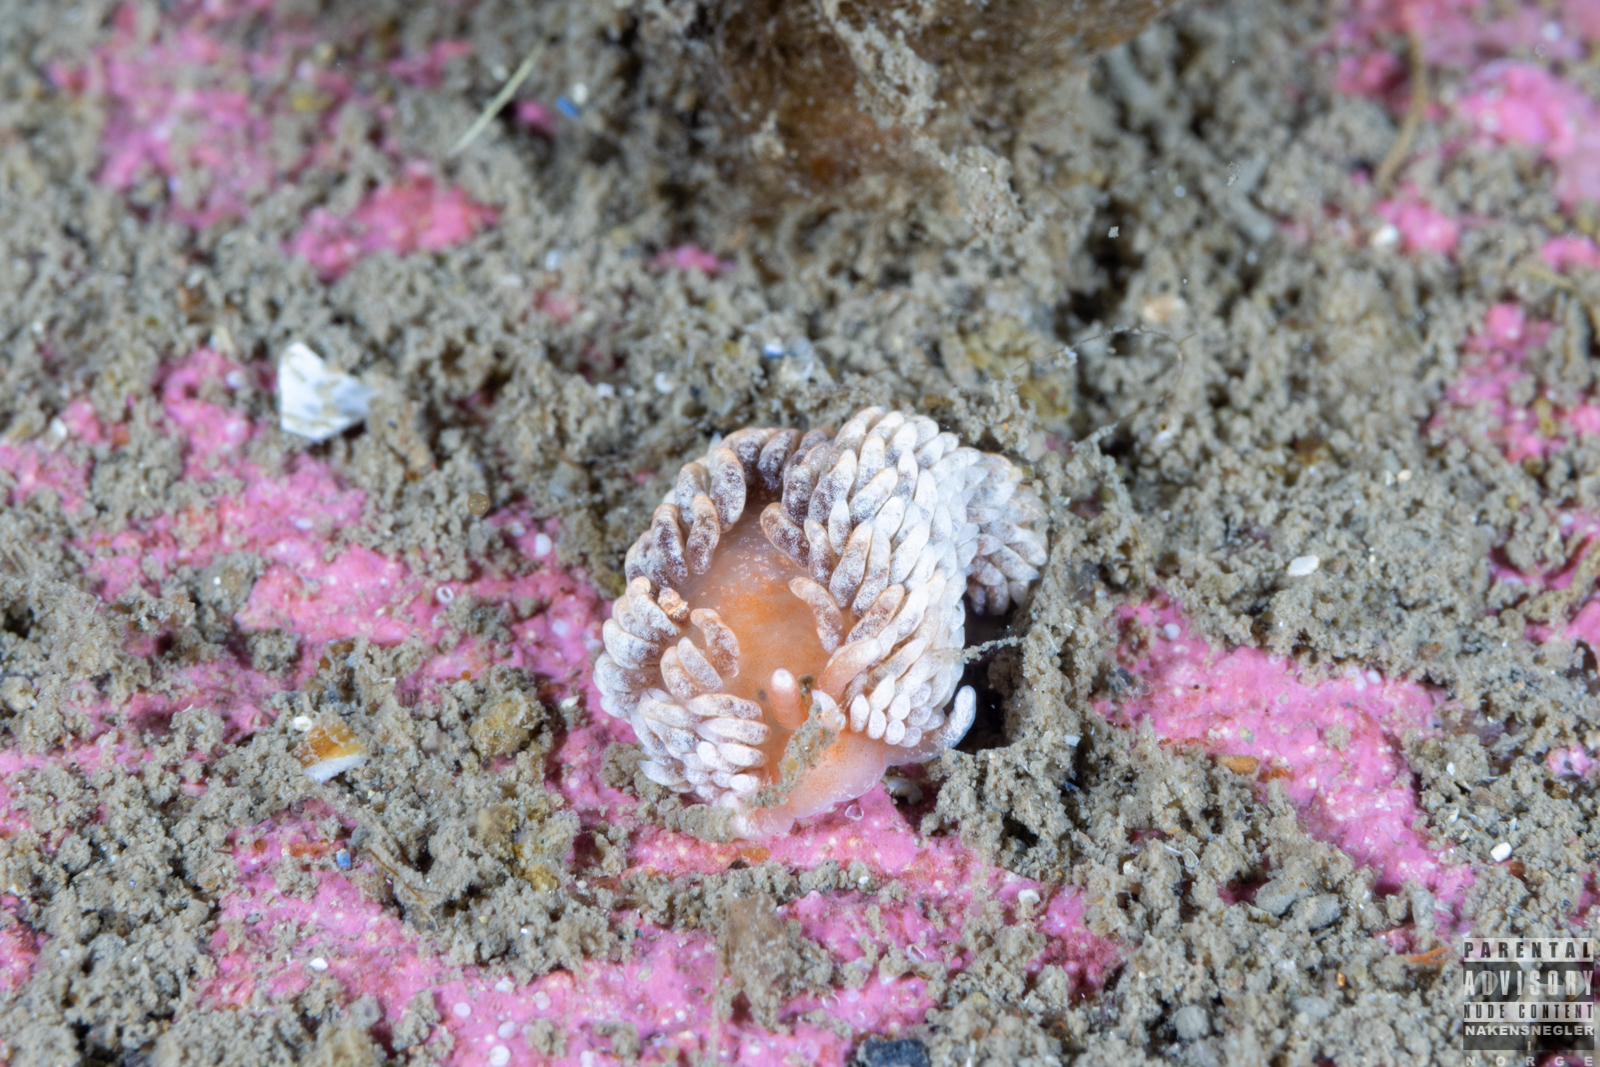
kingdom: Animalia
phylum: Mollusca
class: Gastropoda
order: Nudibranchia
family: Aeolidiidae
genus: Aeolidiella
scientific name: Aeolidiella glauca
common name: Orange-brown aeolid
